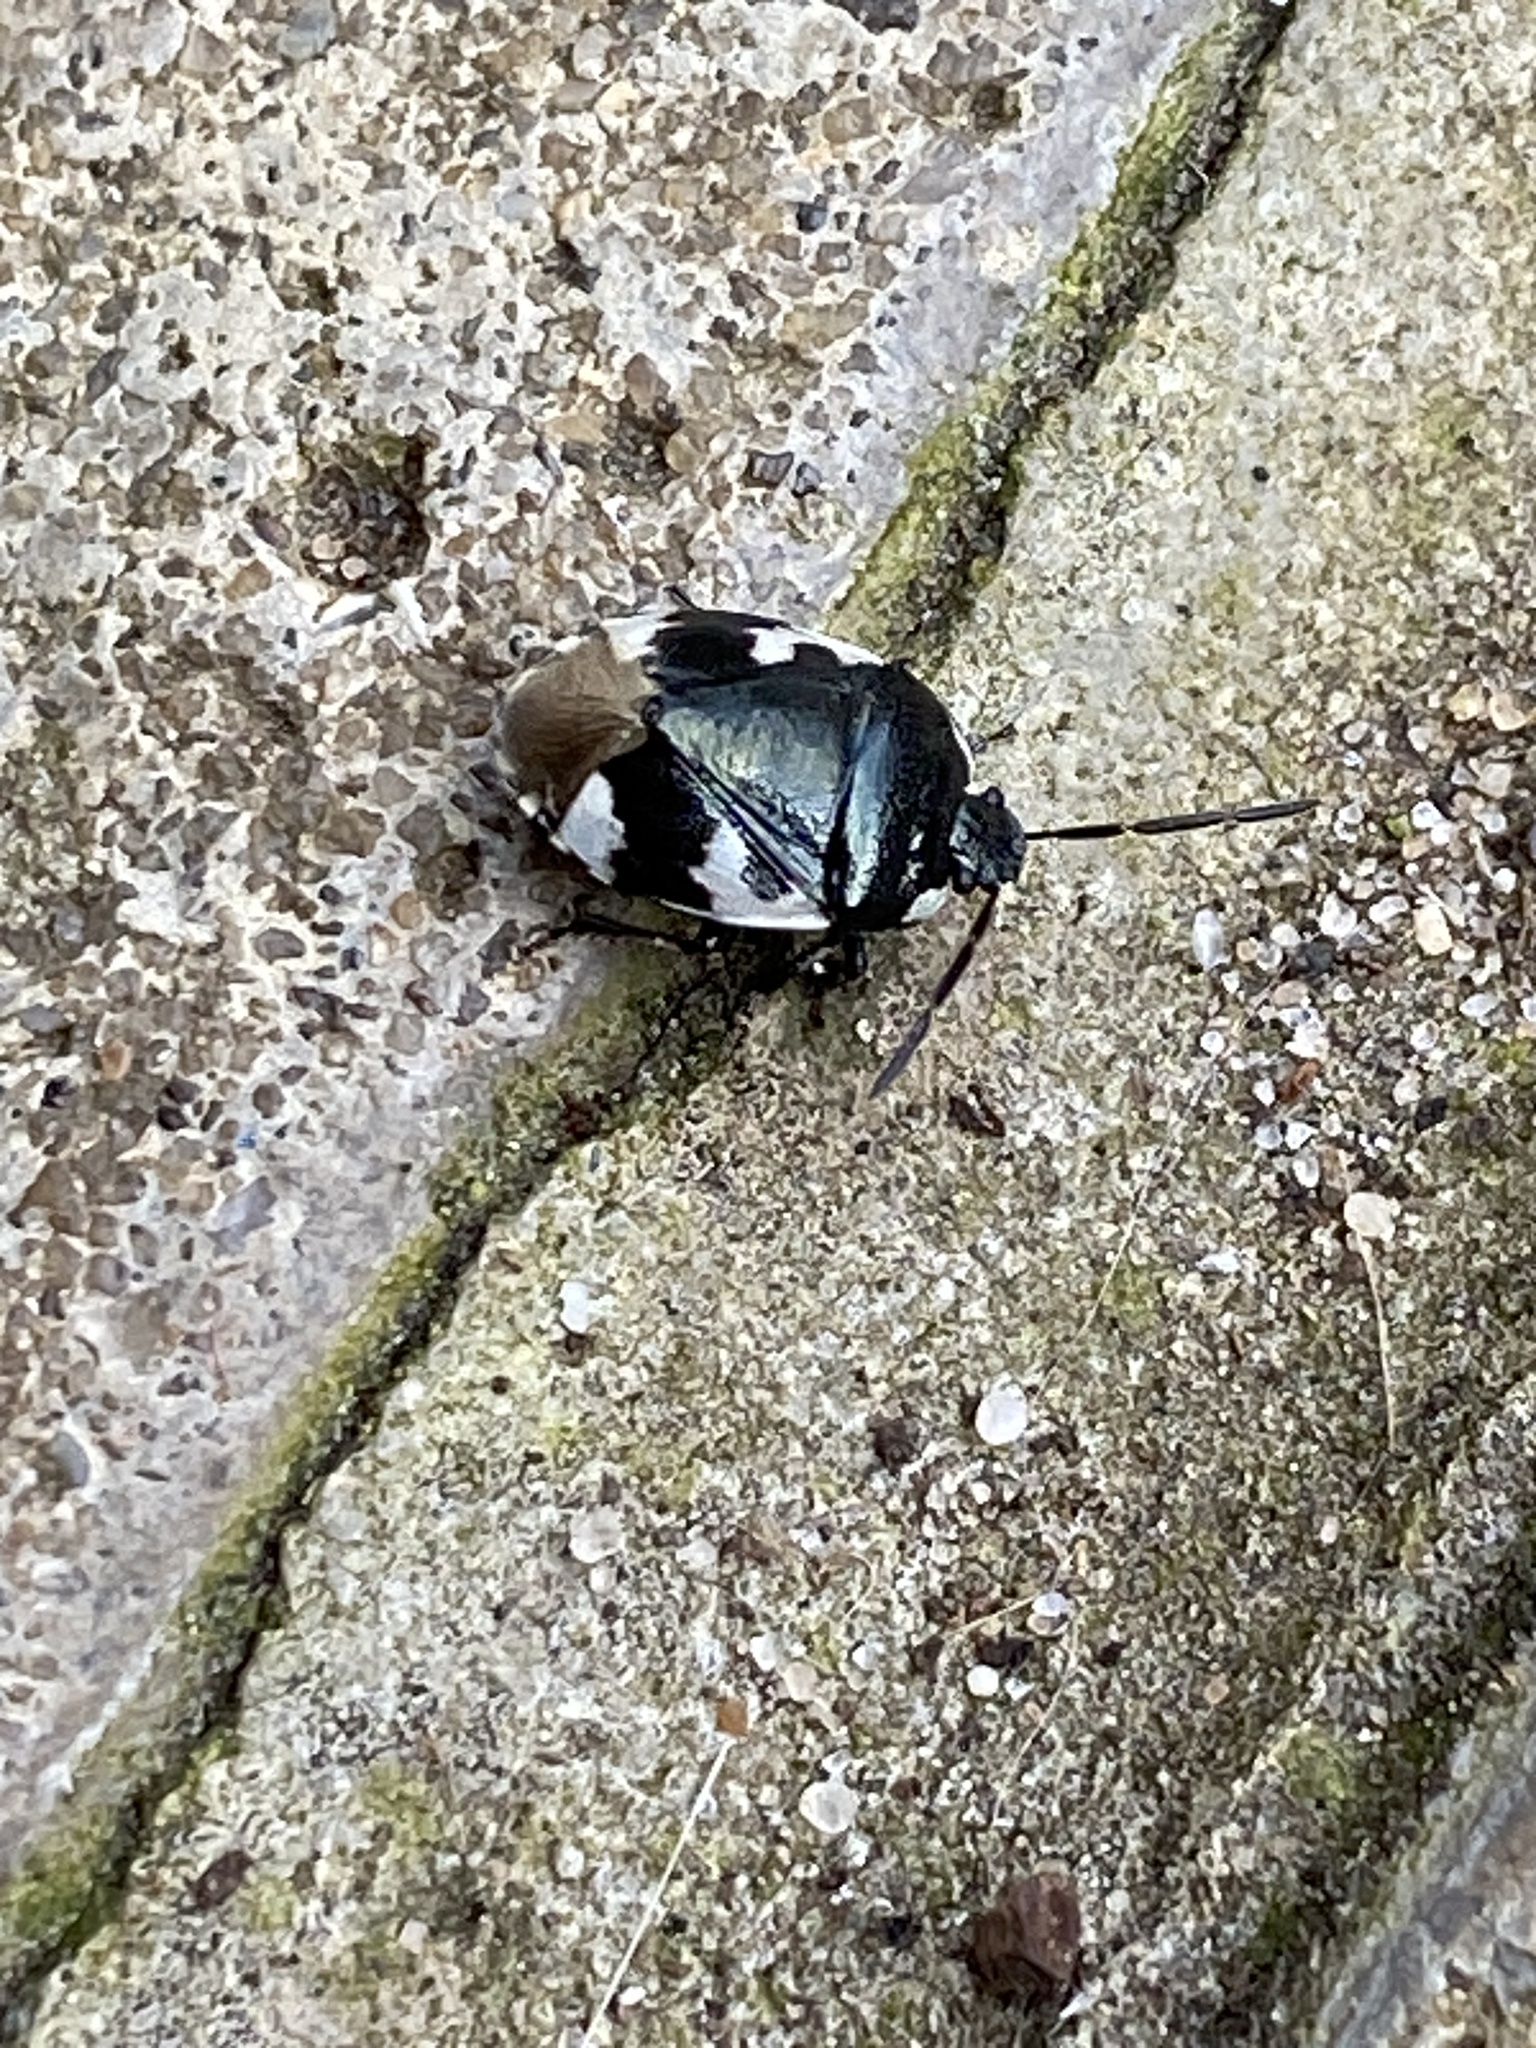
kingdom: Animalia
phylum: Arthropoda
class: Insecta
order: Hemiptera
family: Cydnidae
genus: Tritomegas
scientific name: Tritomegas bicolor
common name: Pied shieldbug
